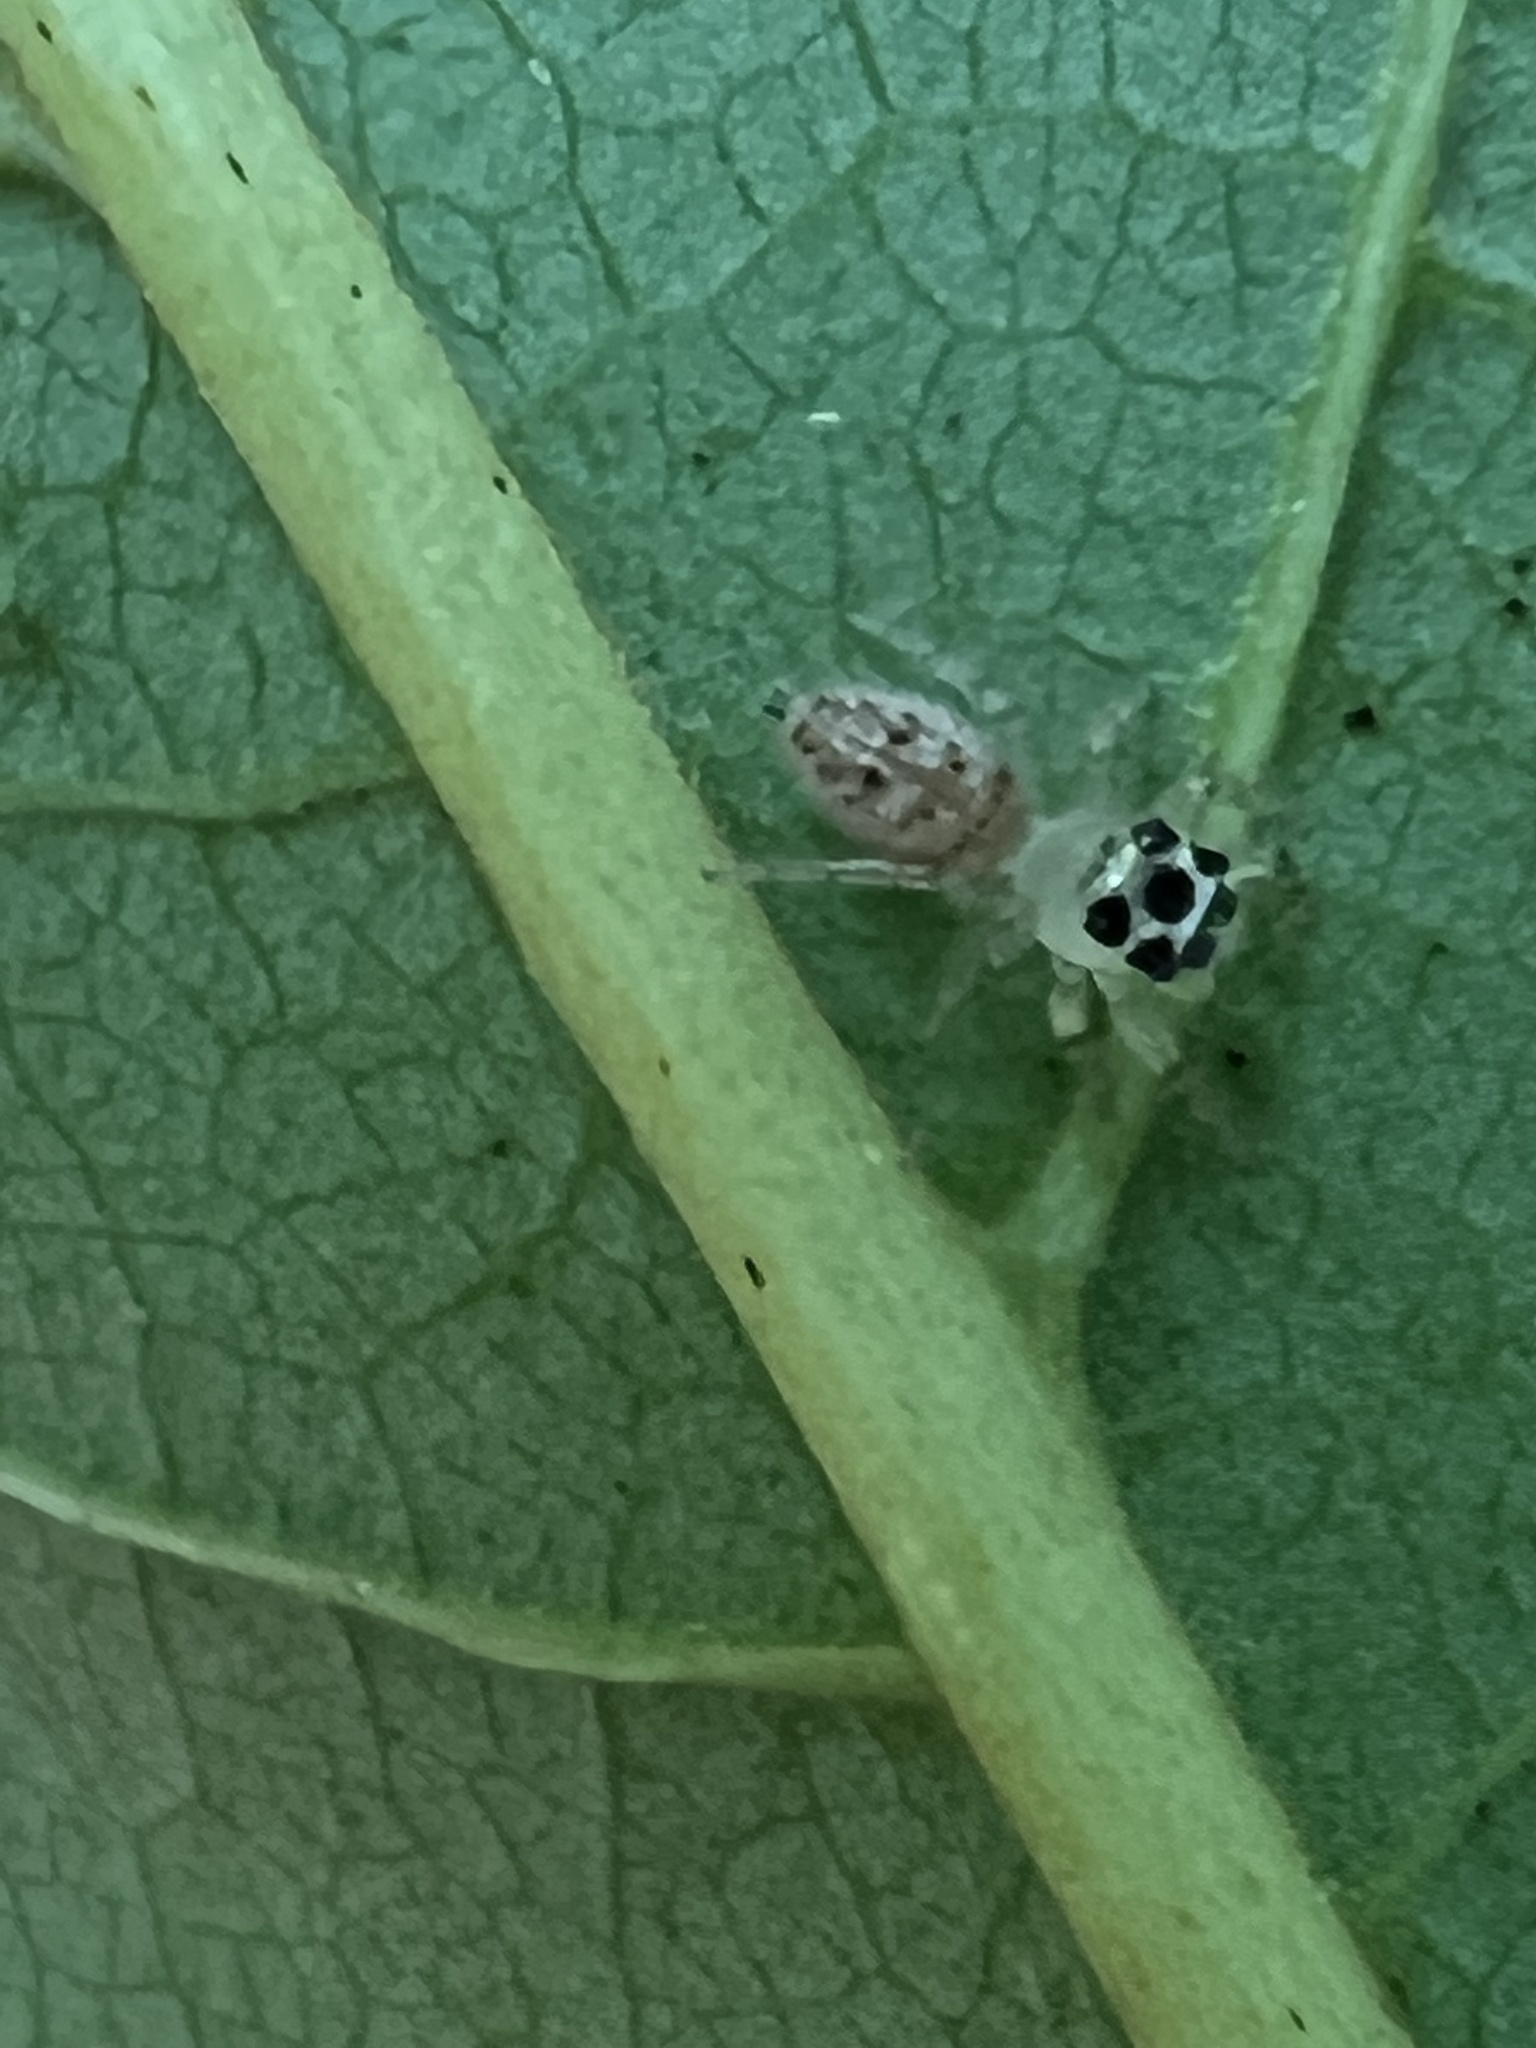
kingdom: Animalia
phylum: Arthropoda
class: Arachnida
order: Araneae
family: Salticidae
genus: Colonus
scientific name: Colonus sylvanus
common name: Jumping spiders
